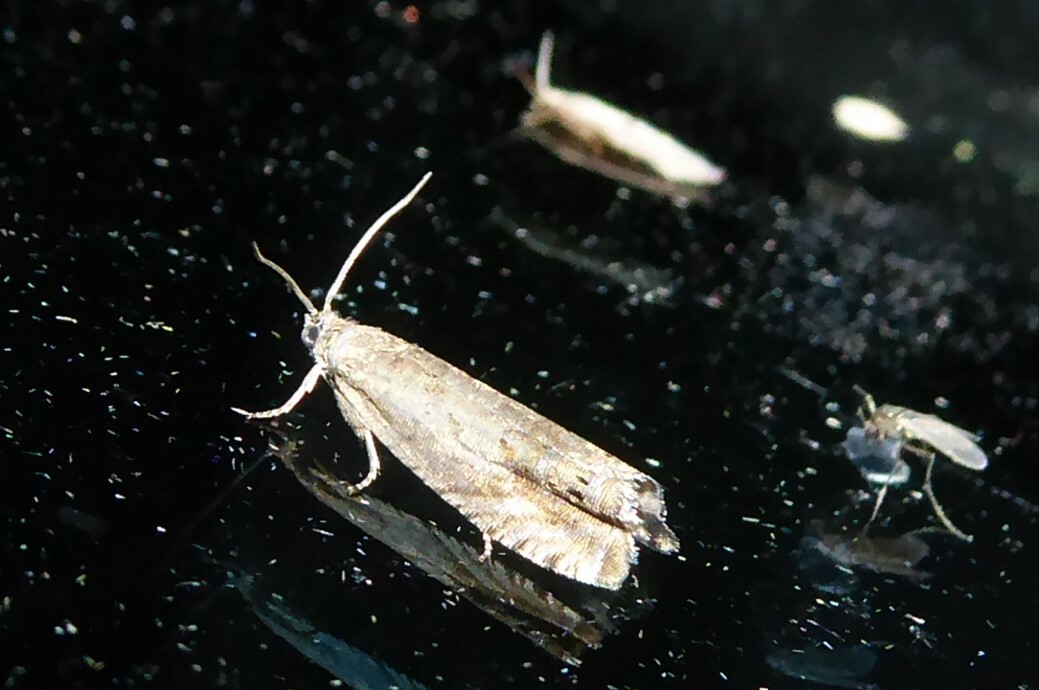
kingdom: Animalia
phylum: Arthropoda
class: Insecta
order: Lepidoptera
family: Tortricidae
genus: Cydia
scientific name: Cydia succedana
